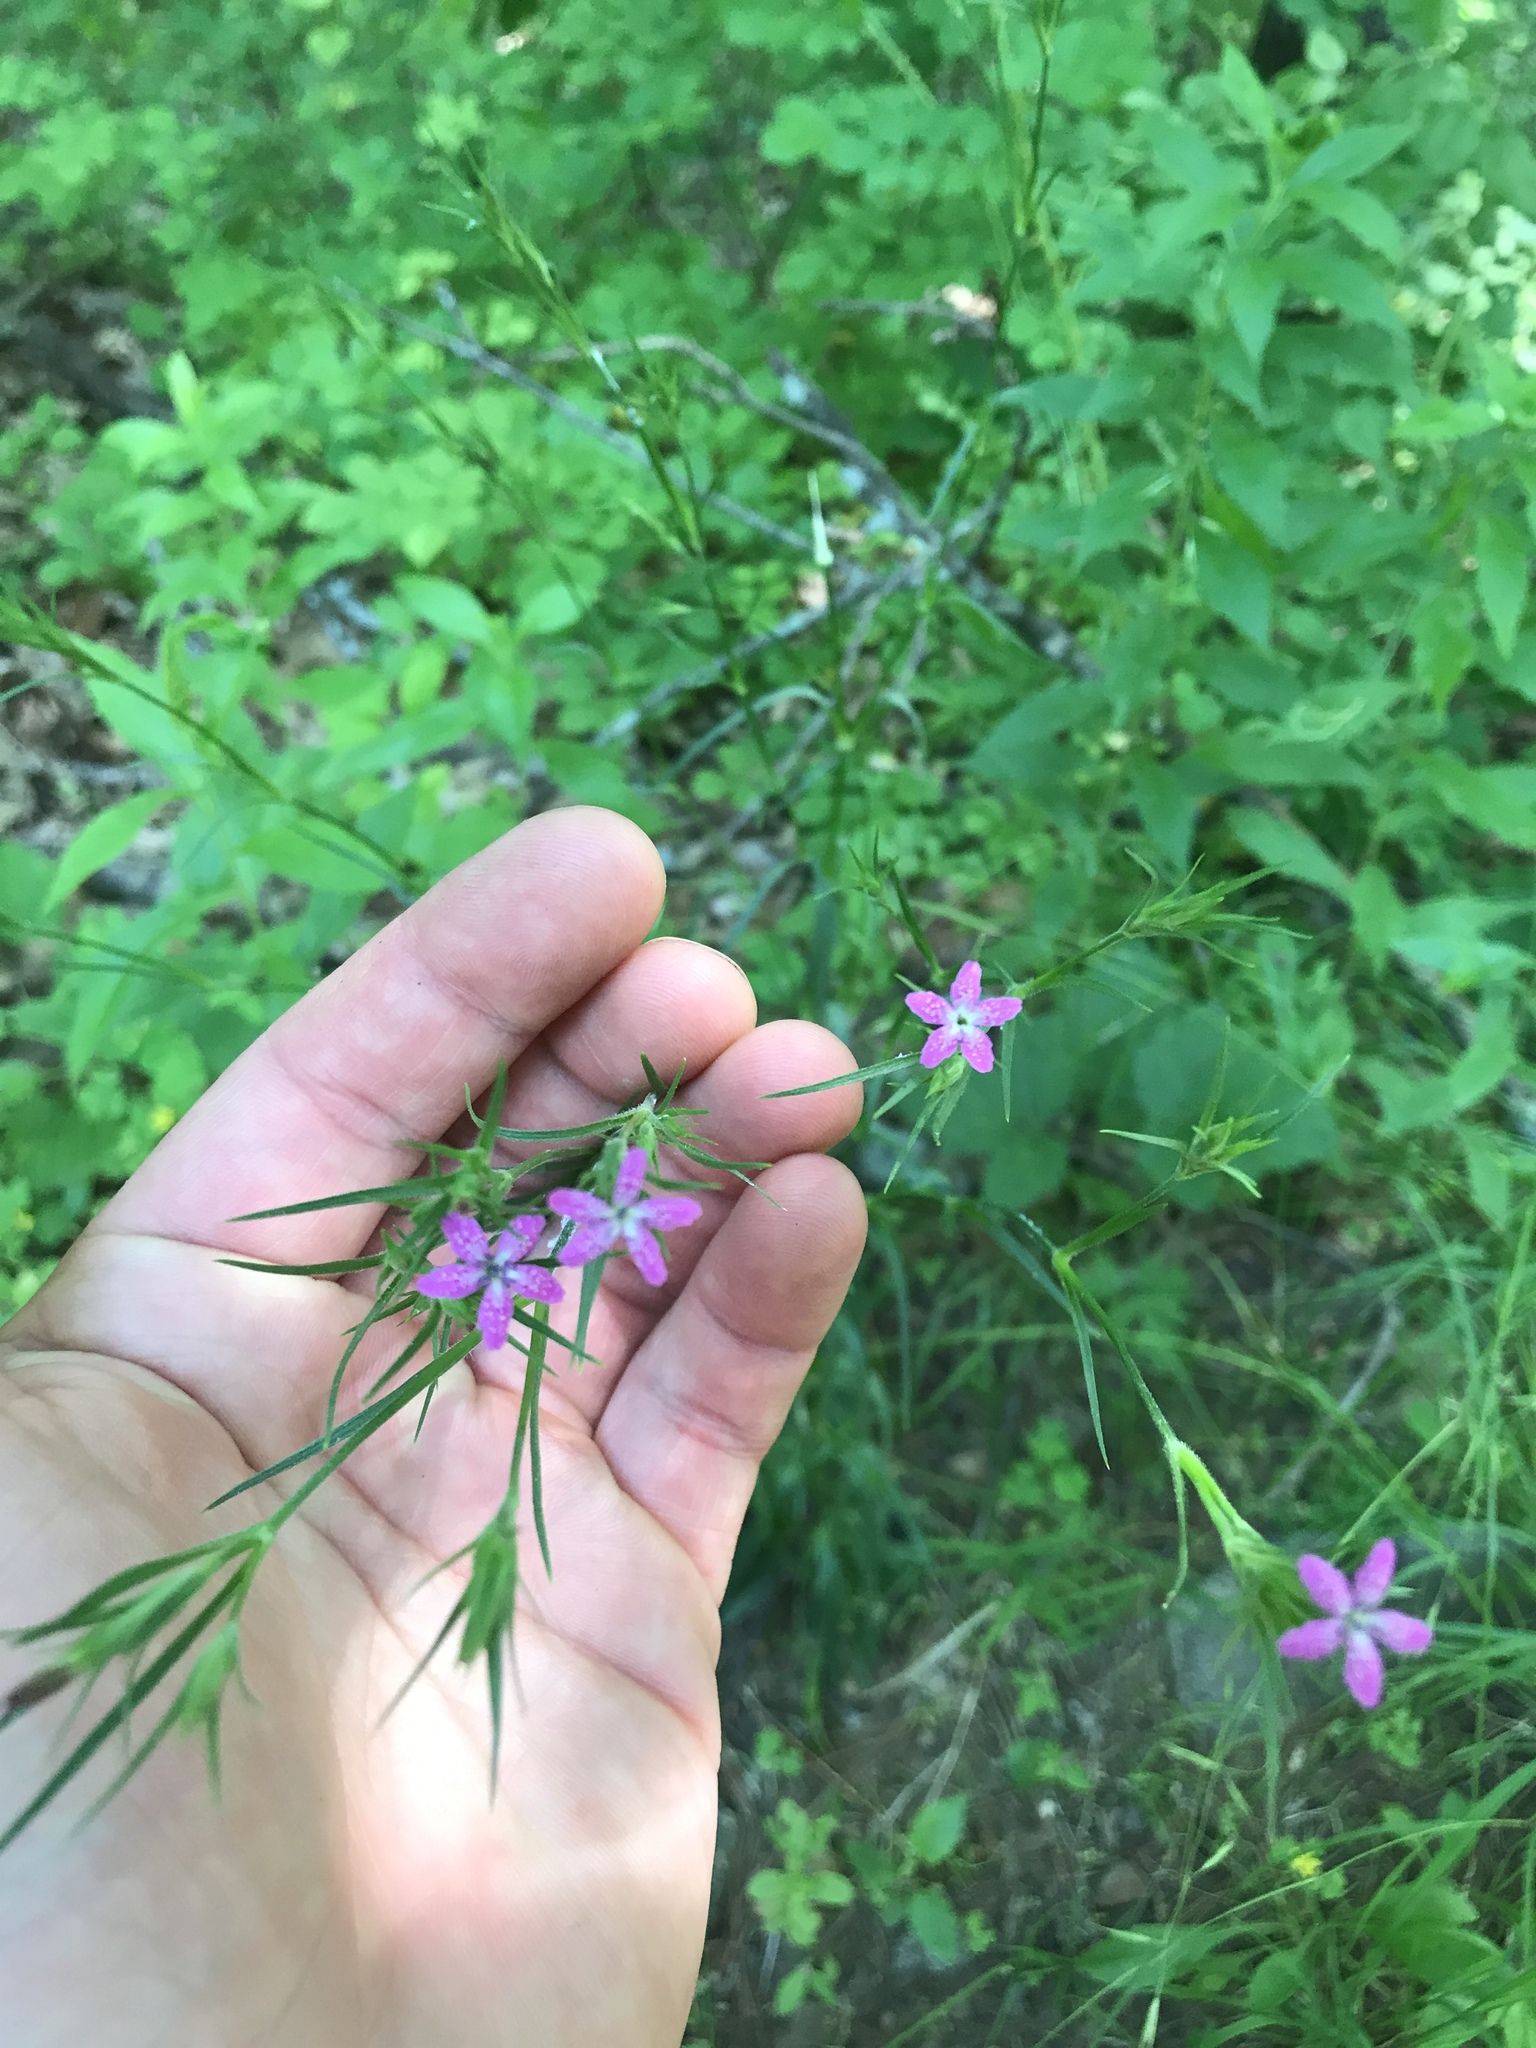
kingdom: Plantae
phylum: Tracheophyta
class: Magnoliopsida
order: Caryophyllales
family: Caryophyllaceae
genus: Dianthus
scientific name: Dianthus armeria
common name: Deptford pink
